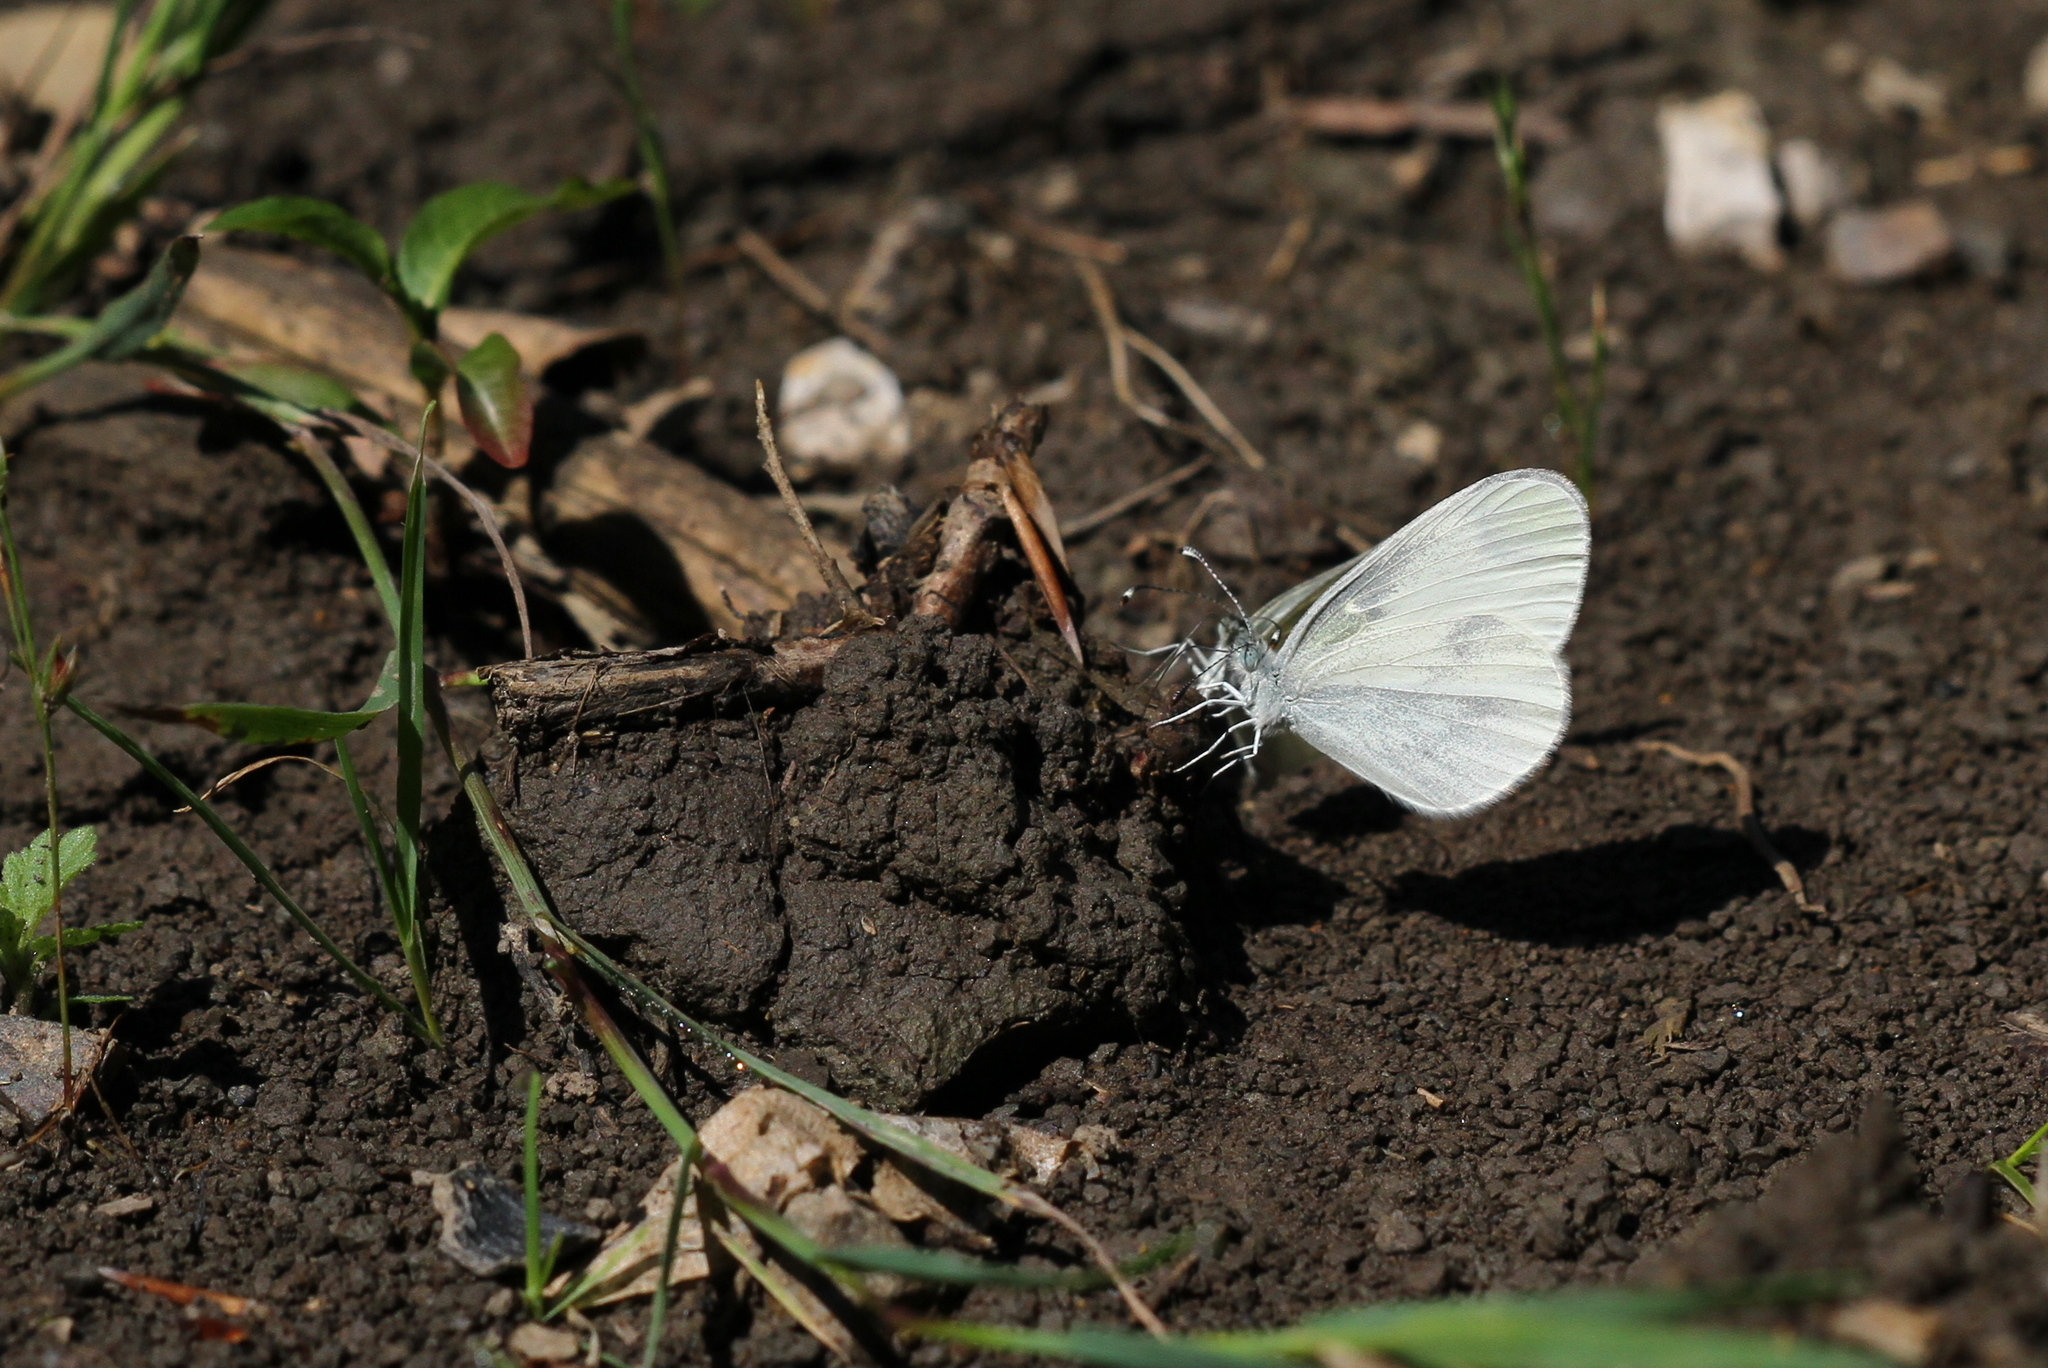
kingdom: Animalia
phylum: Arthropoda
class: Insecta
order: Lepidoptera
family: Pieridae
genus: Leptidea
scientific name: Leptidea
